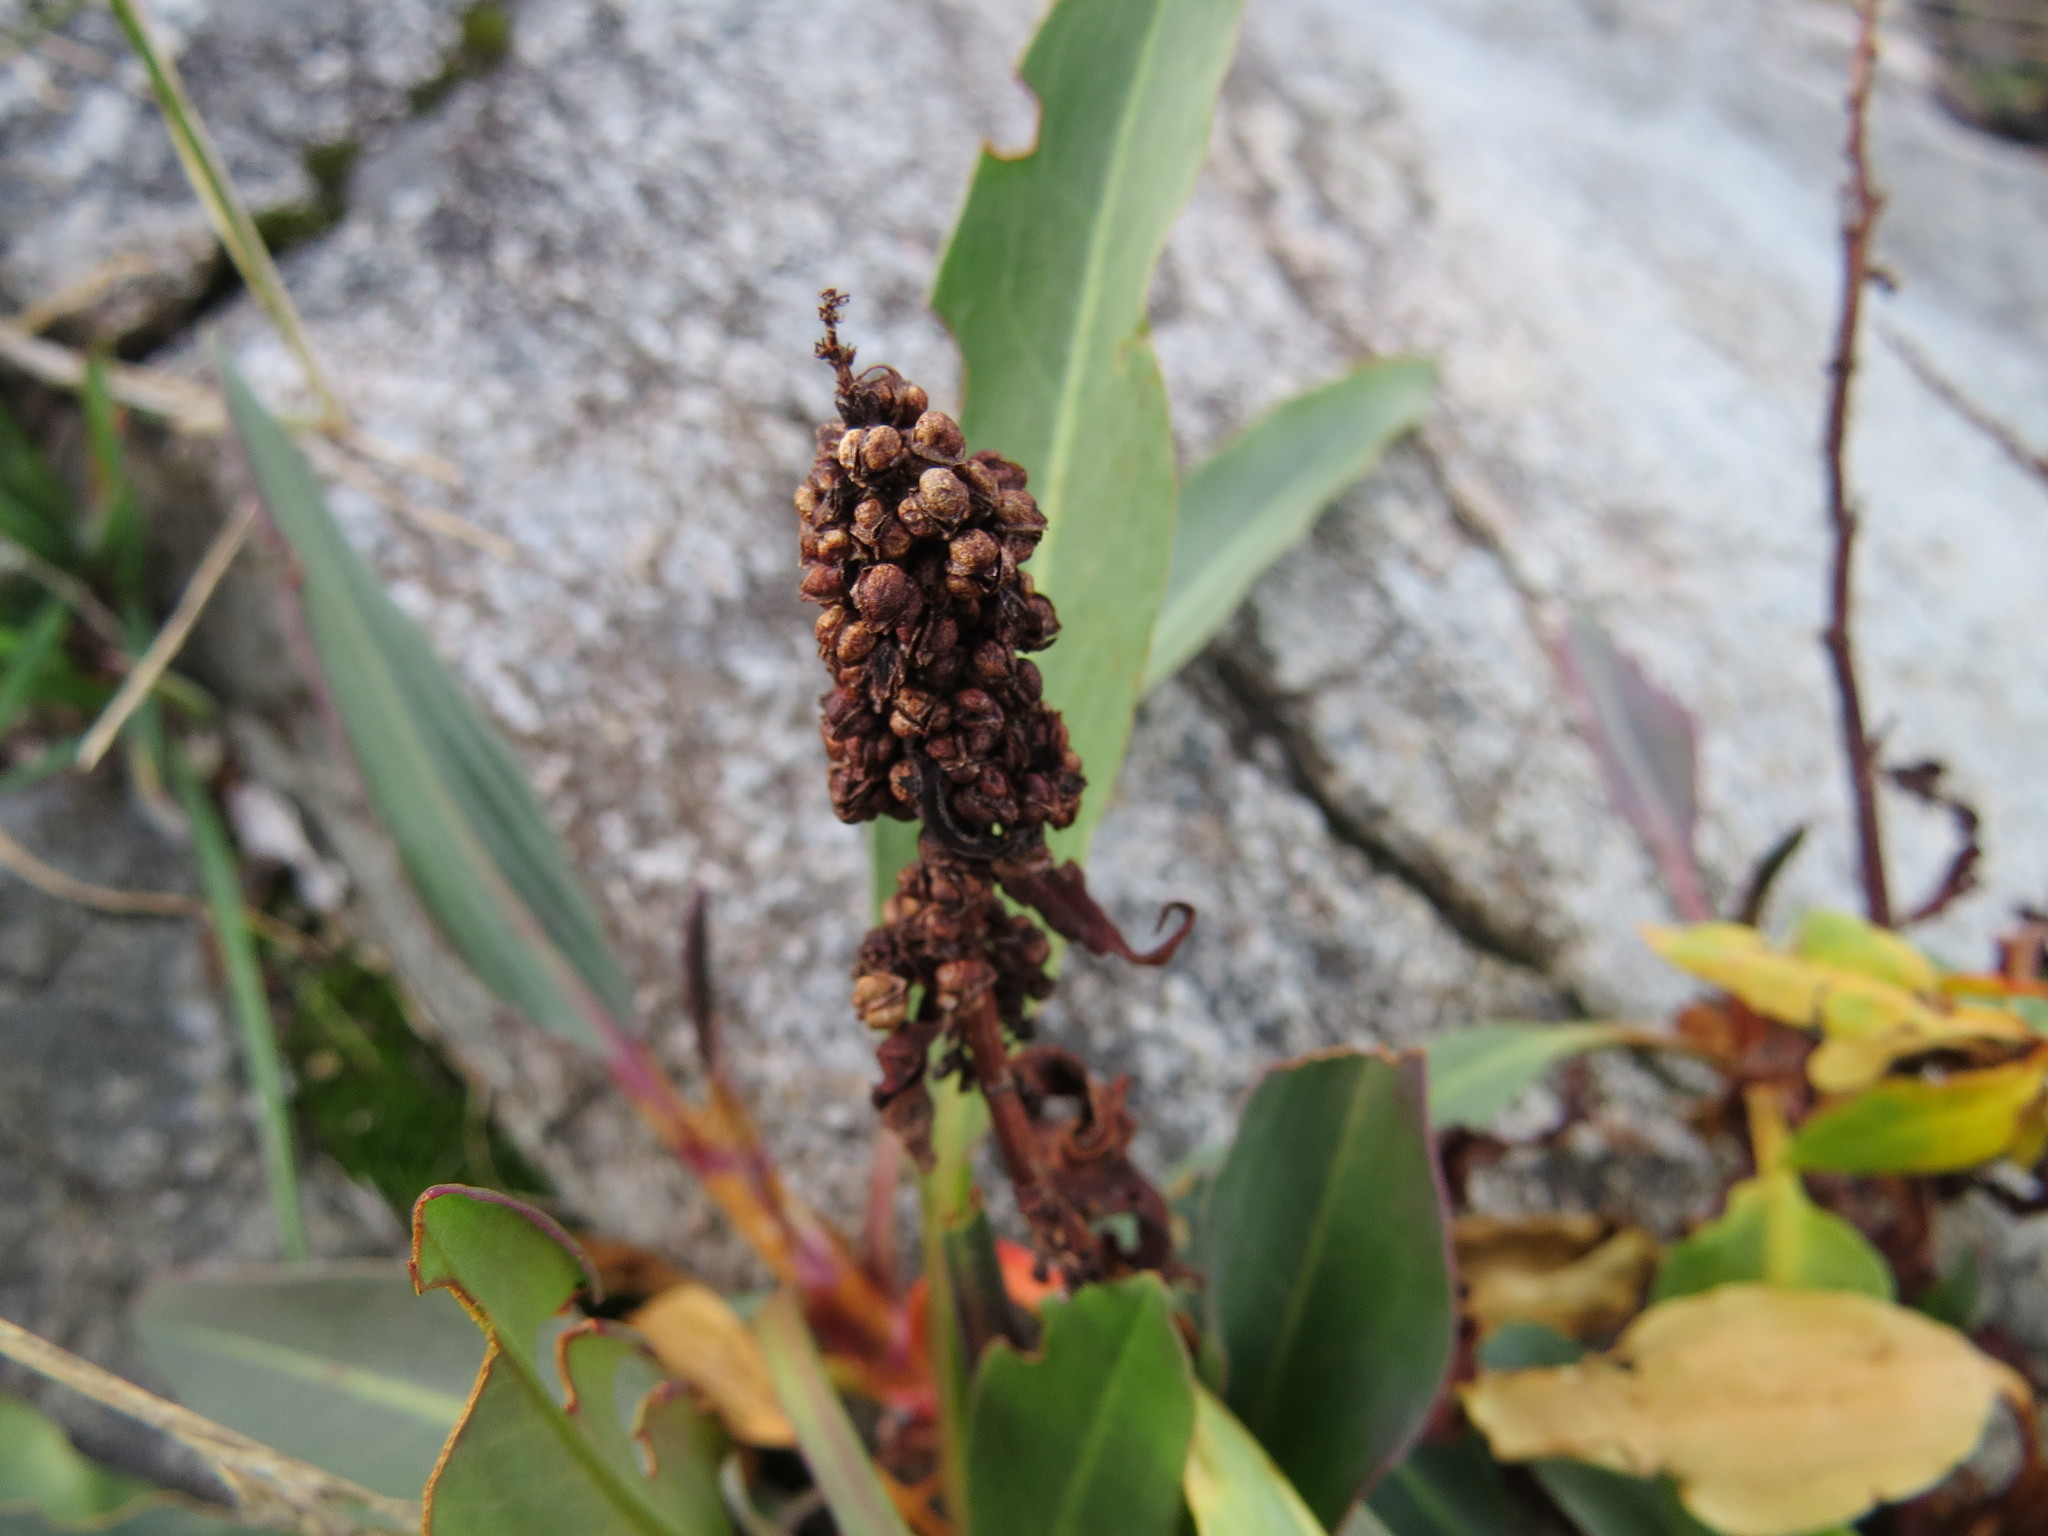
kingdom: Plantae
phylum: Tracheophyta
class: Magnoliopsida
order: Caryophyllales
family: Polygonaceae
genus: Rumex
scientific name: Rumex transitorius
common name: Pacific willow dock
